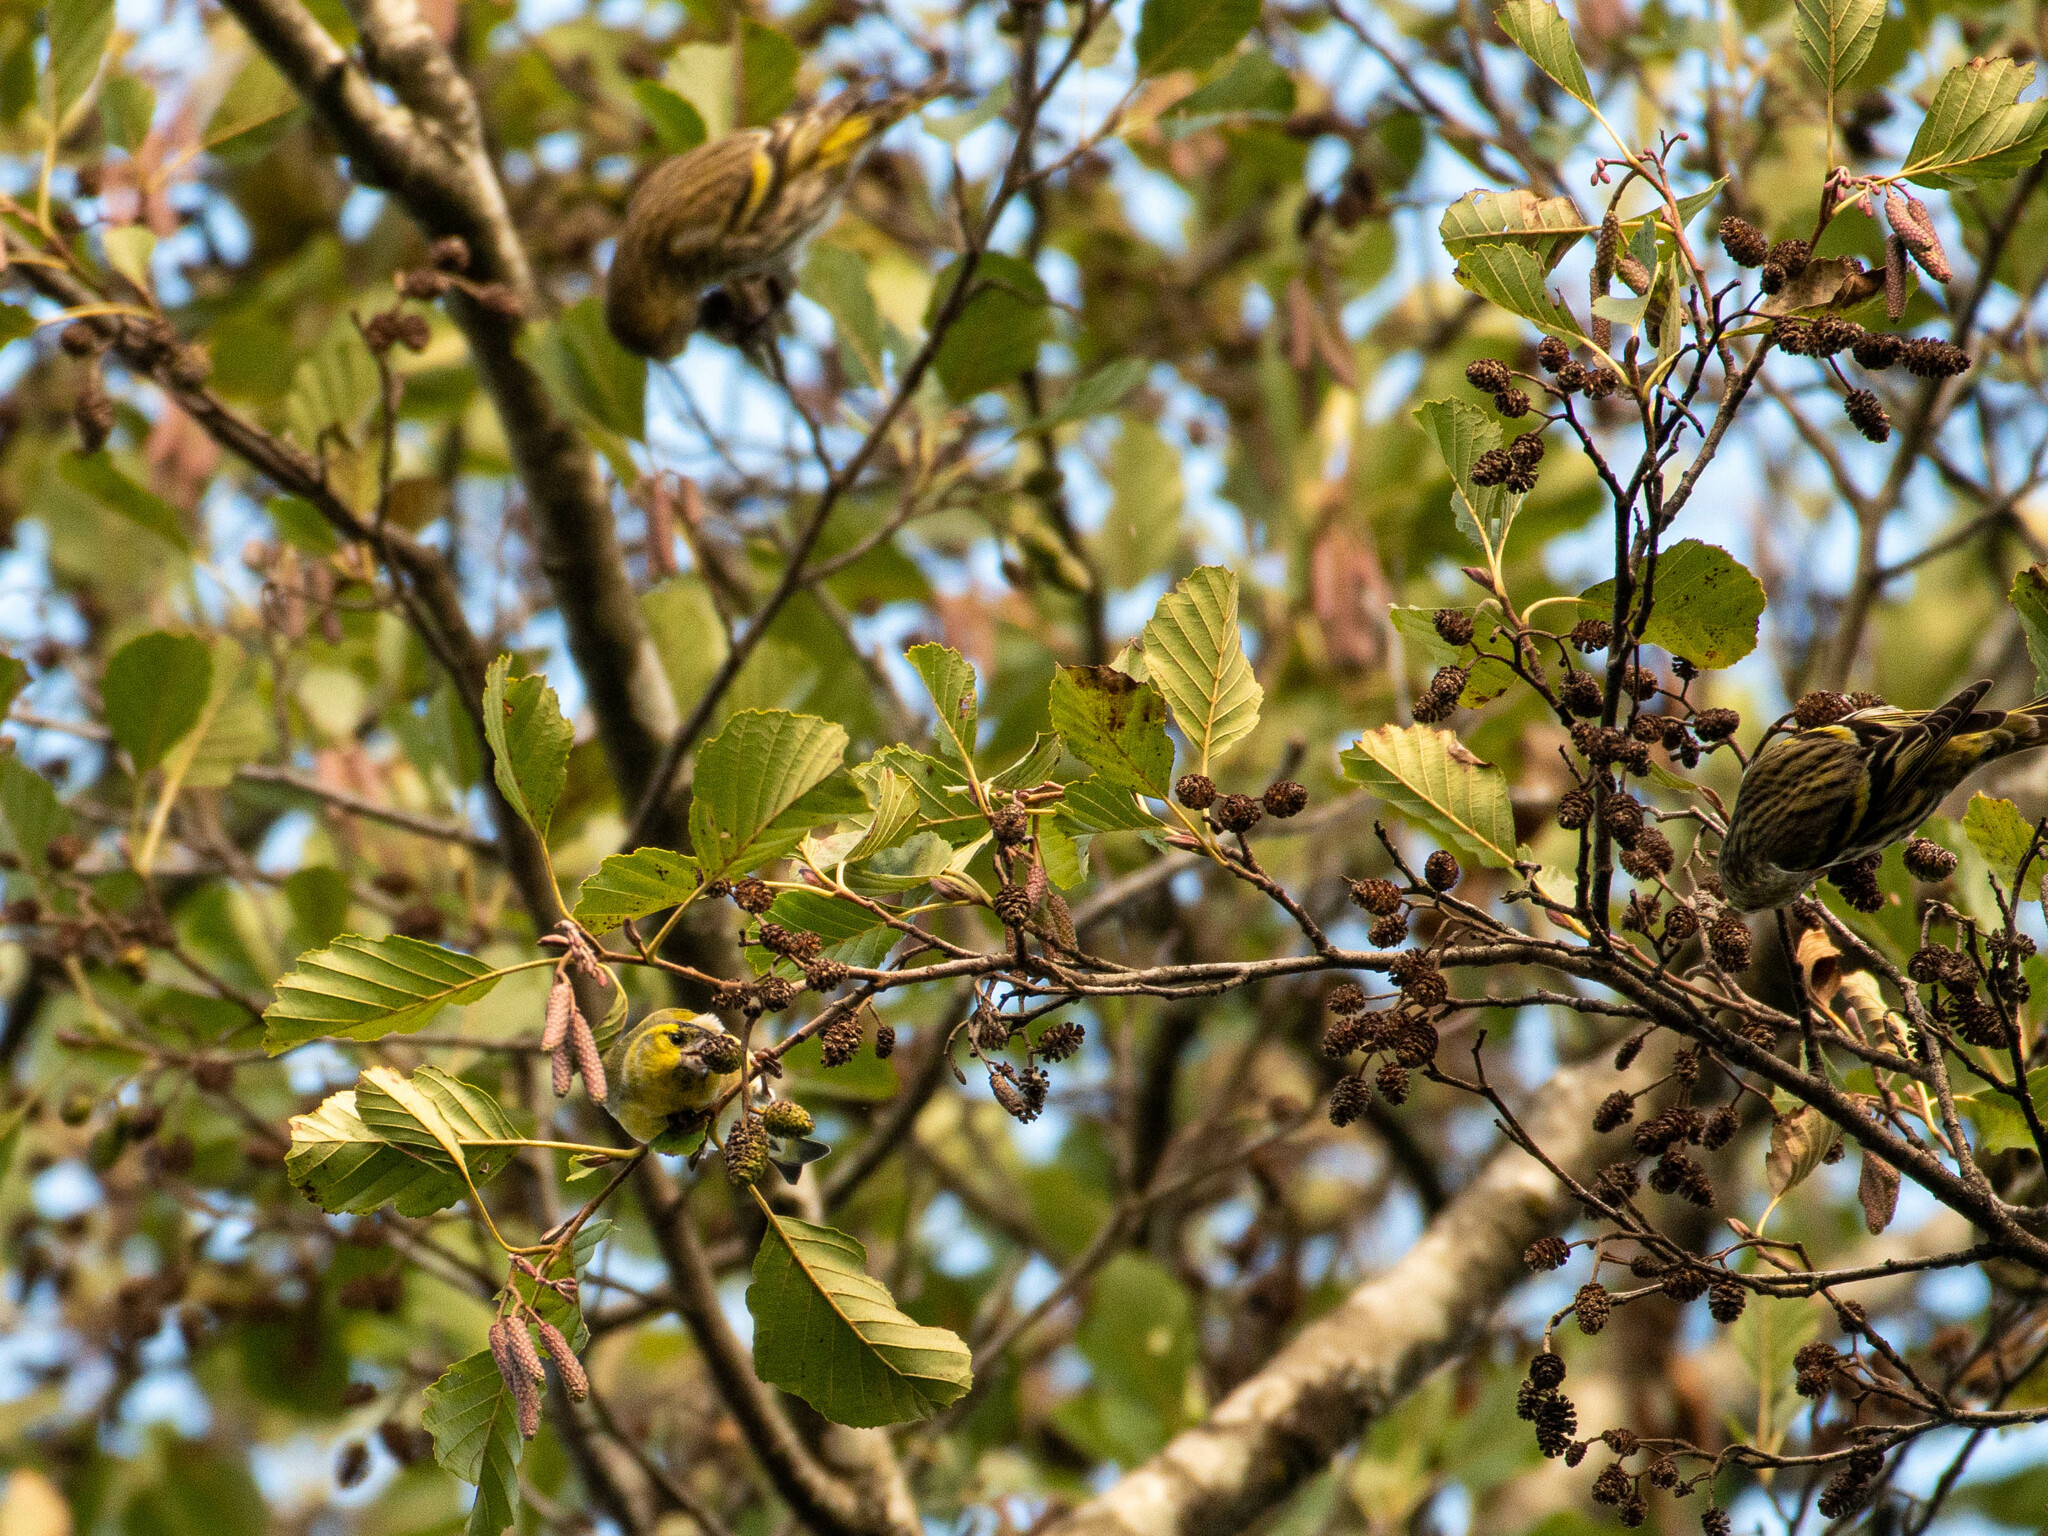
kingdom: Animalia
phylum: Chordata
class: Aves
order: Passeriformes
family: Fringillidae
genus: Spinus
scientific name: Spinus spinus
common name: Eurasian siskin
